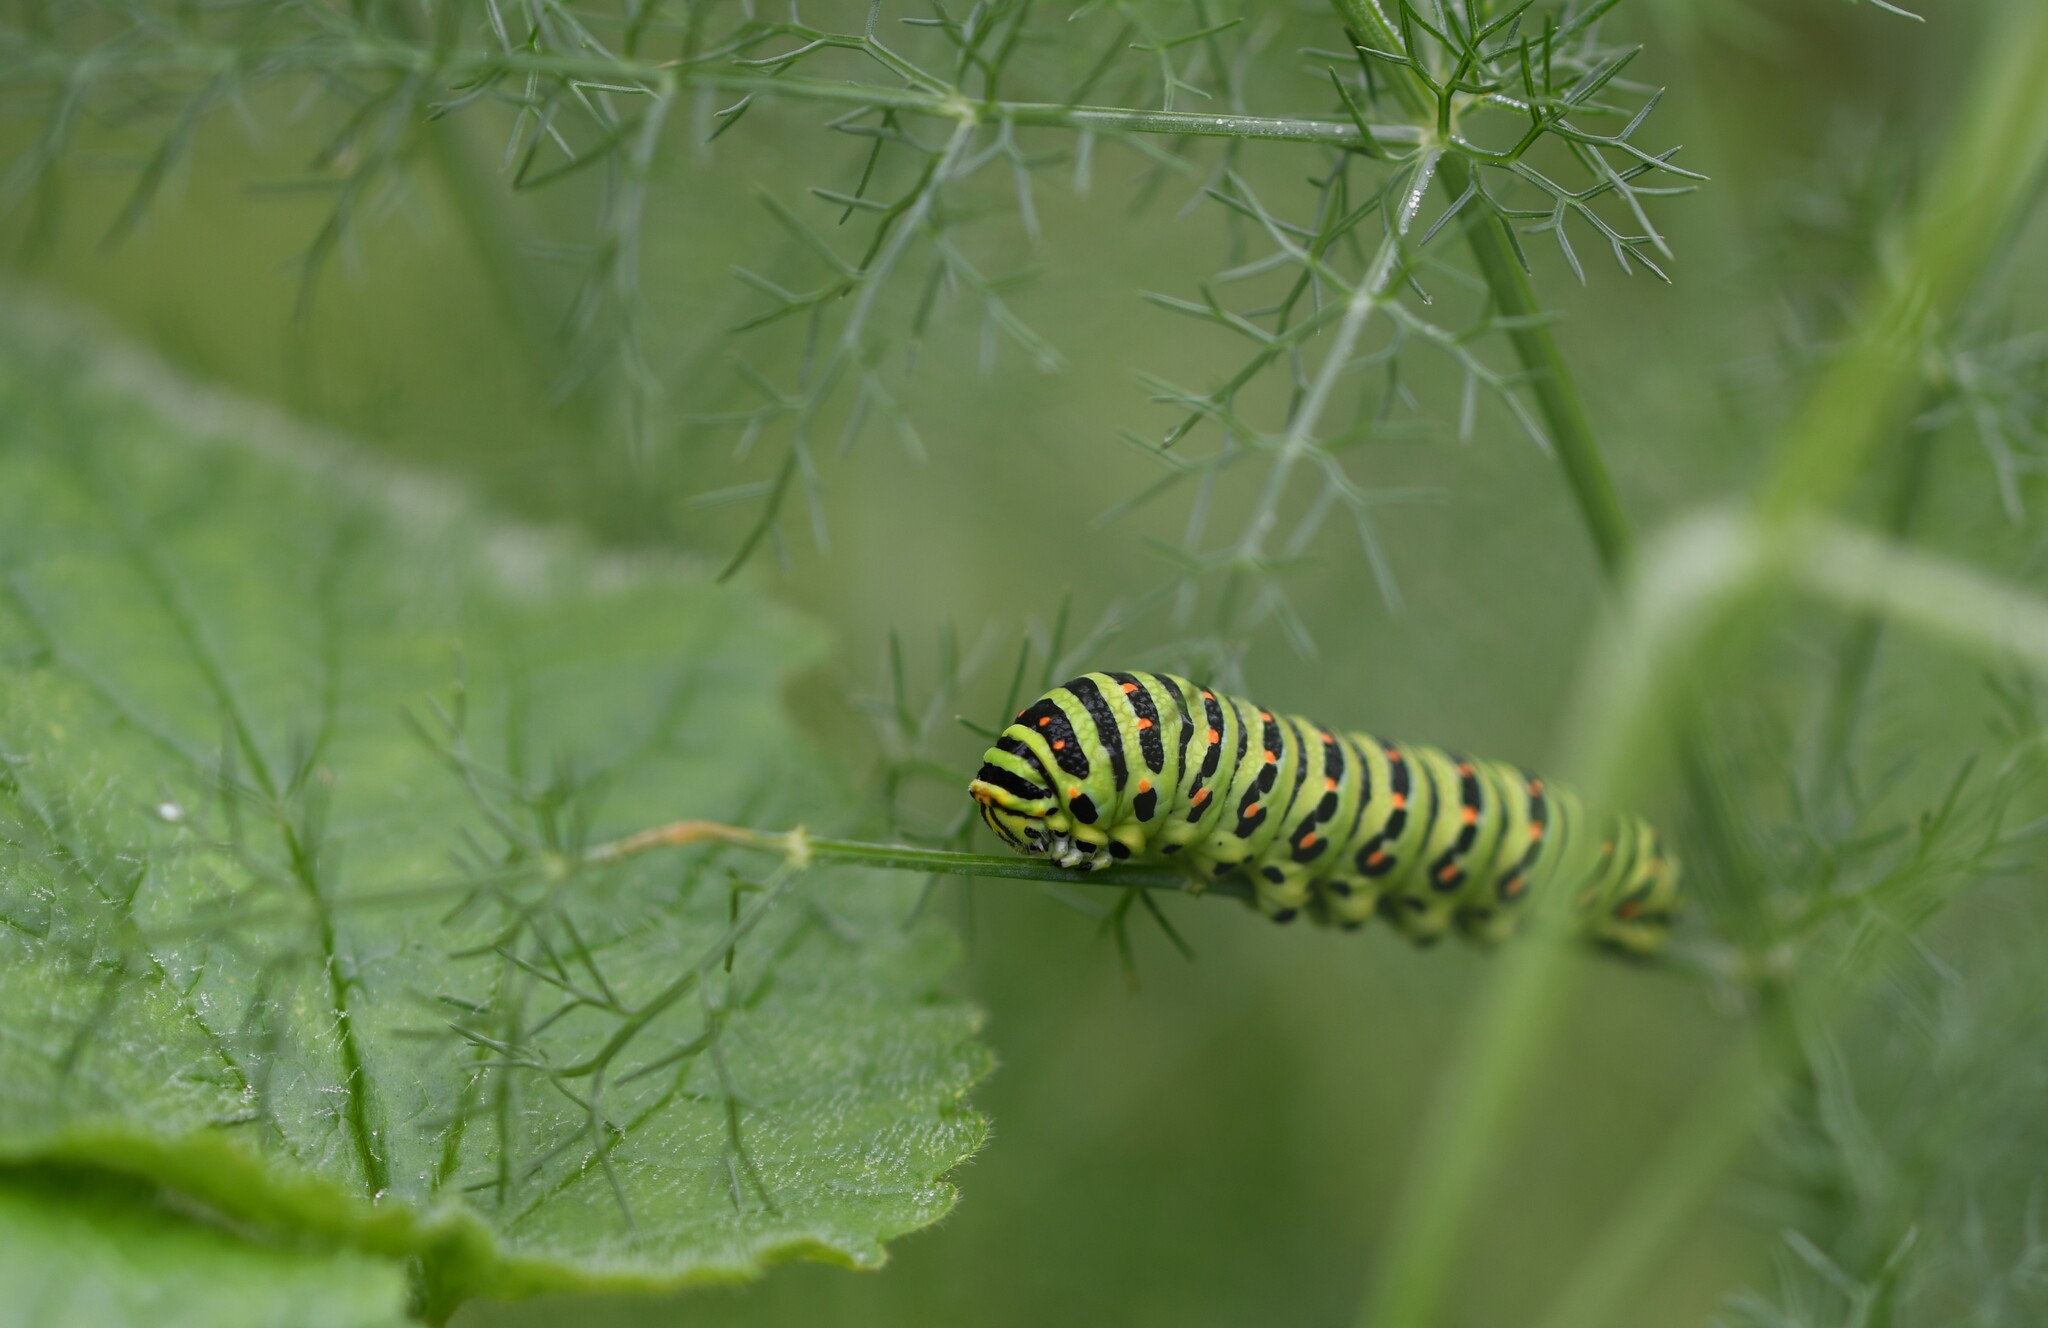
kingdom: Animalia
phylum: Arthropoda
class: Insecta
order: Lepidoptera
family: Papilionidae
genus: Papilio
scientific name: Papilio machaon
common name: Swallowtail
